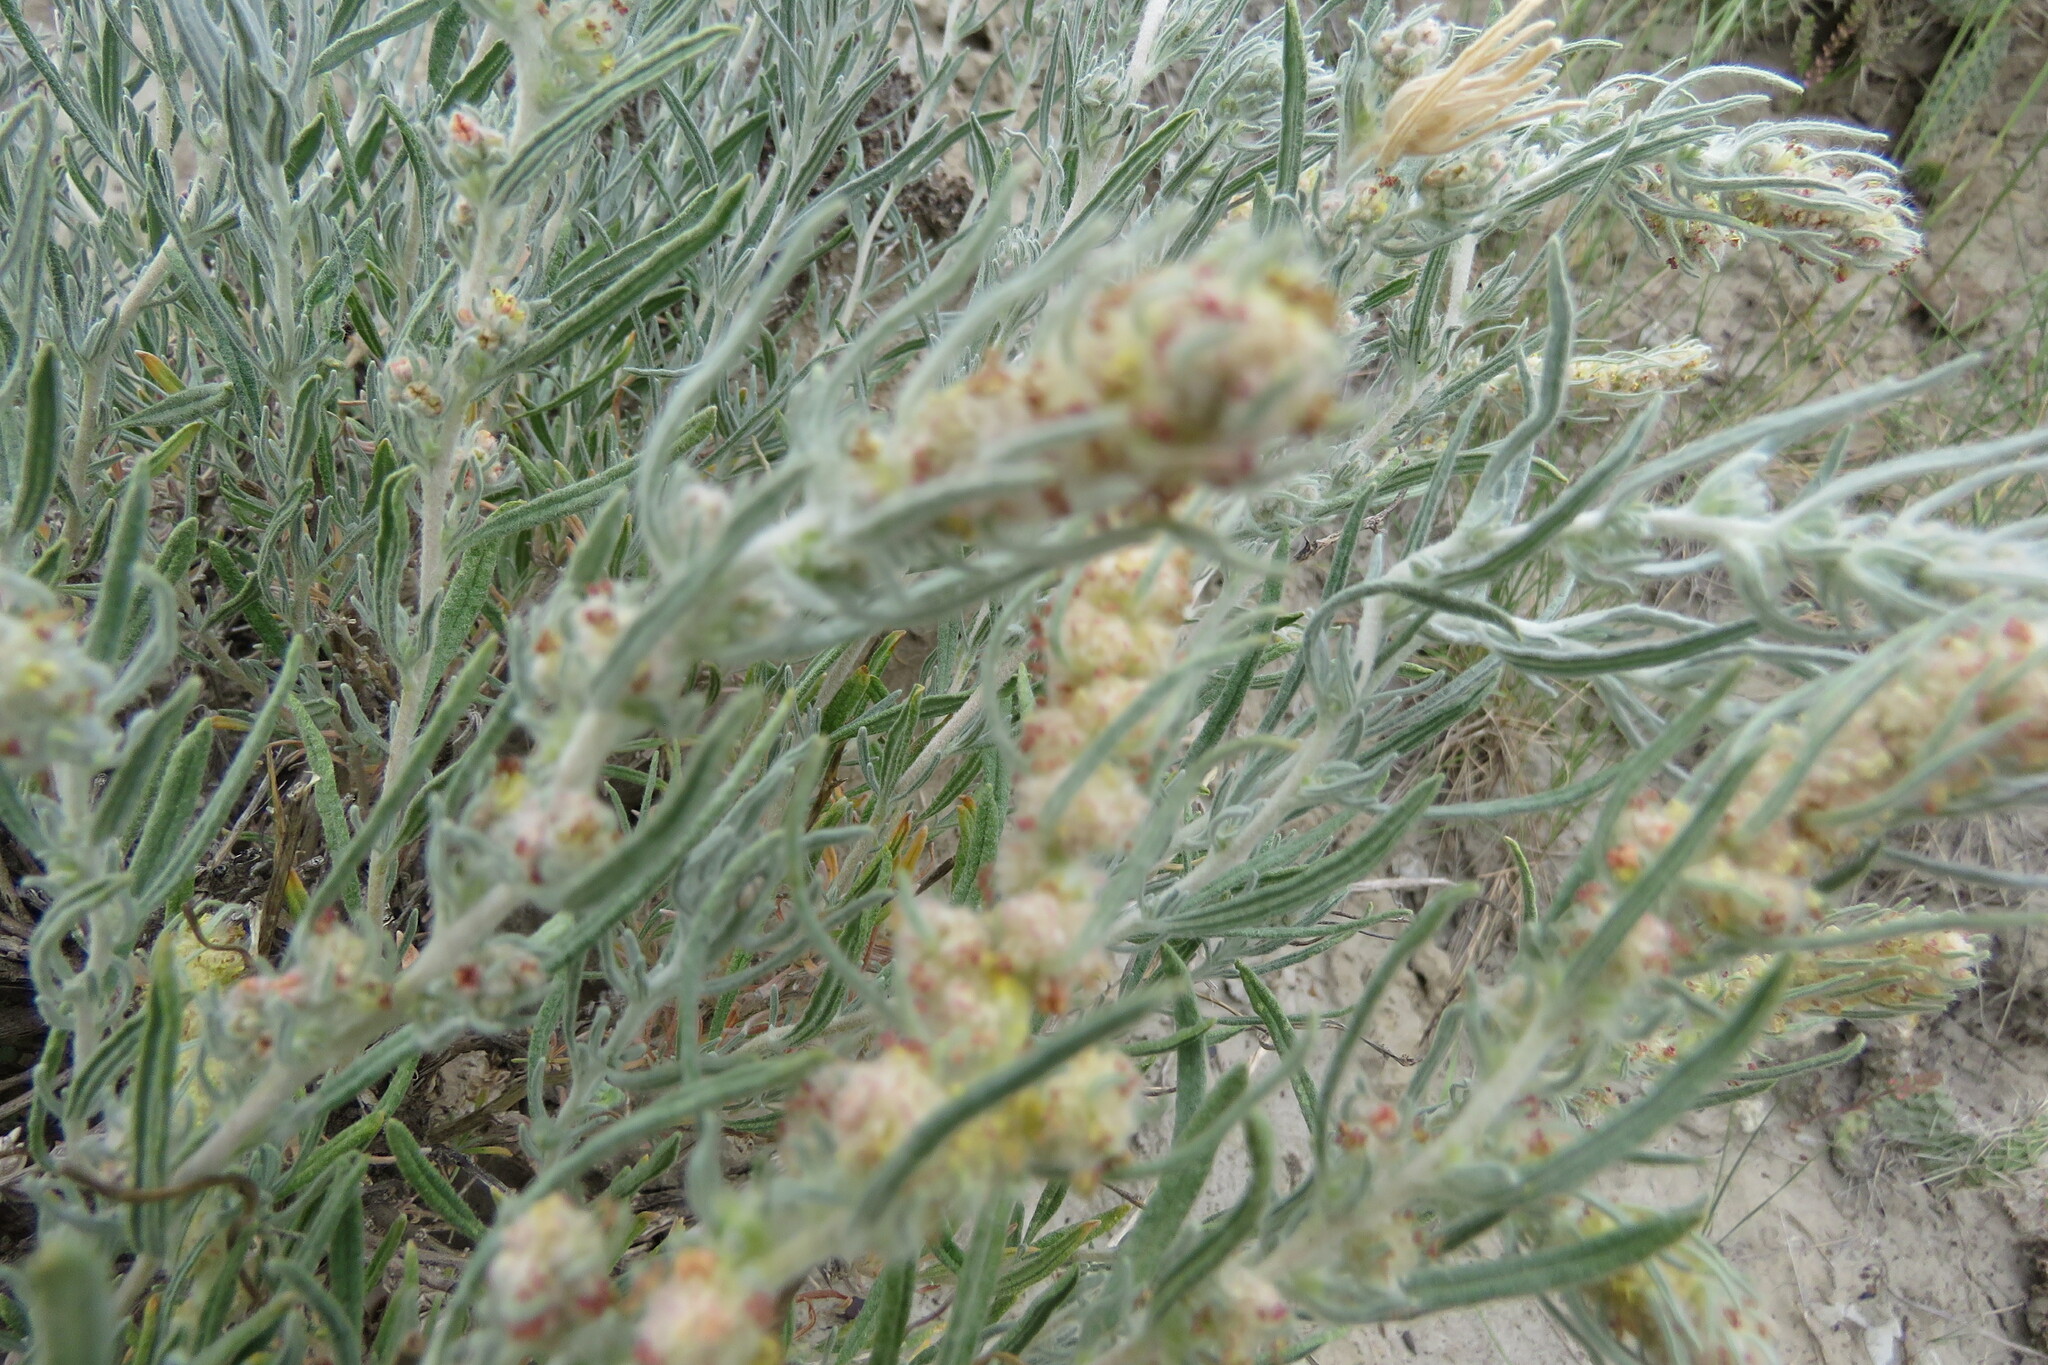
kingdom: Plantae
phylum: Tracheophyta
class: Magnoliopsida
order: Caryophyllales
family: Amaranthaceae
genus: Krascheninnikovia
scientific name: Krascheninnikovia lanata
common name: Winterfat
